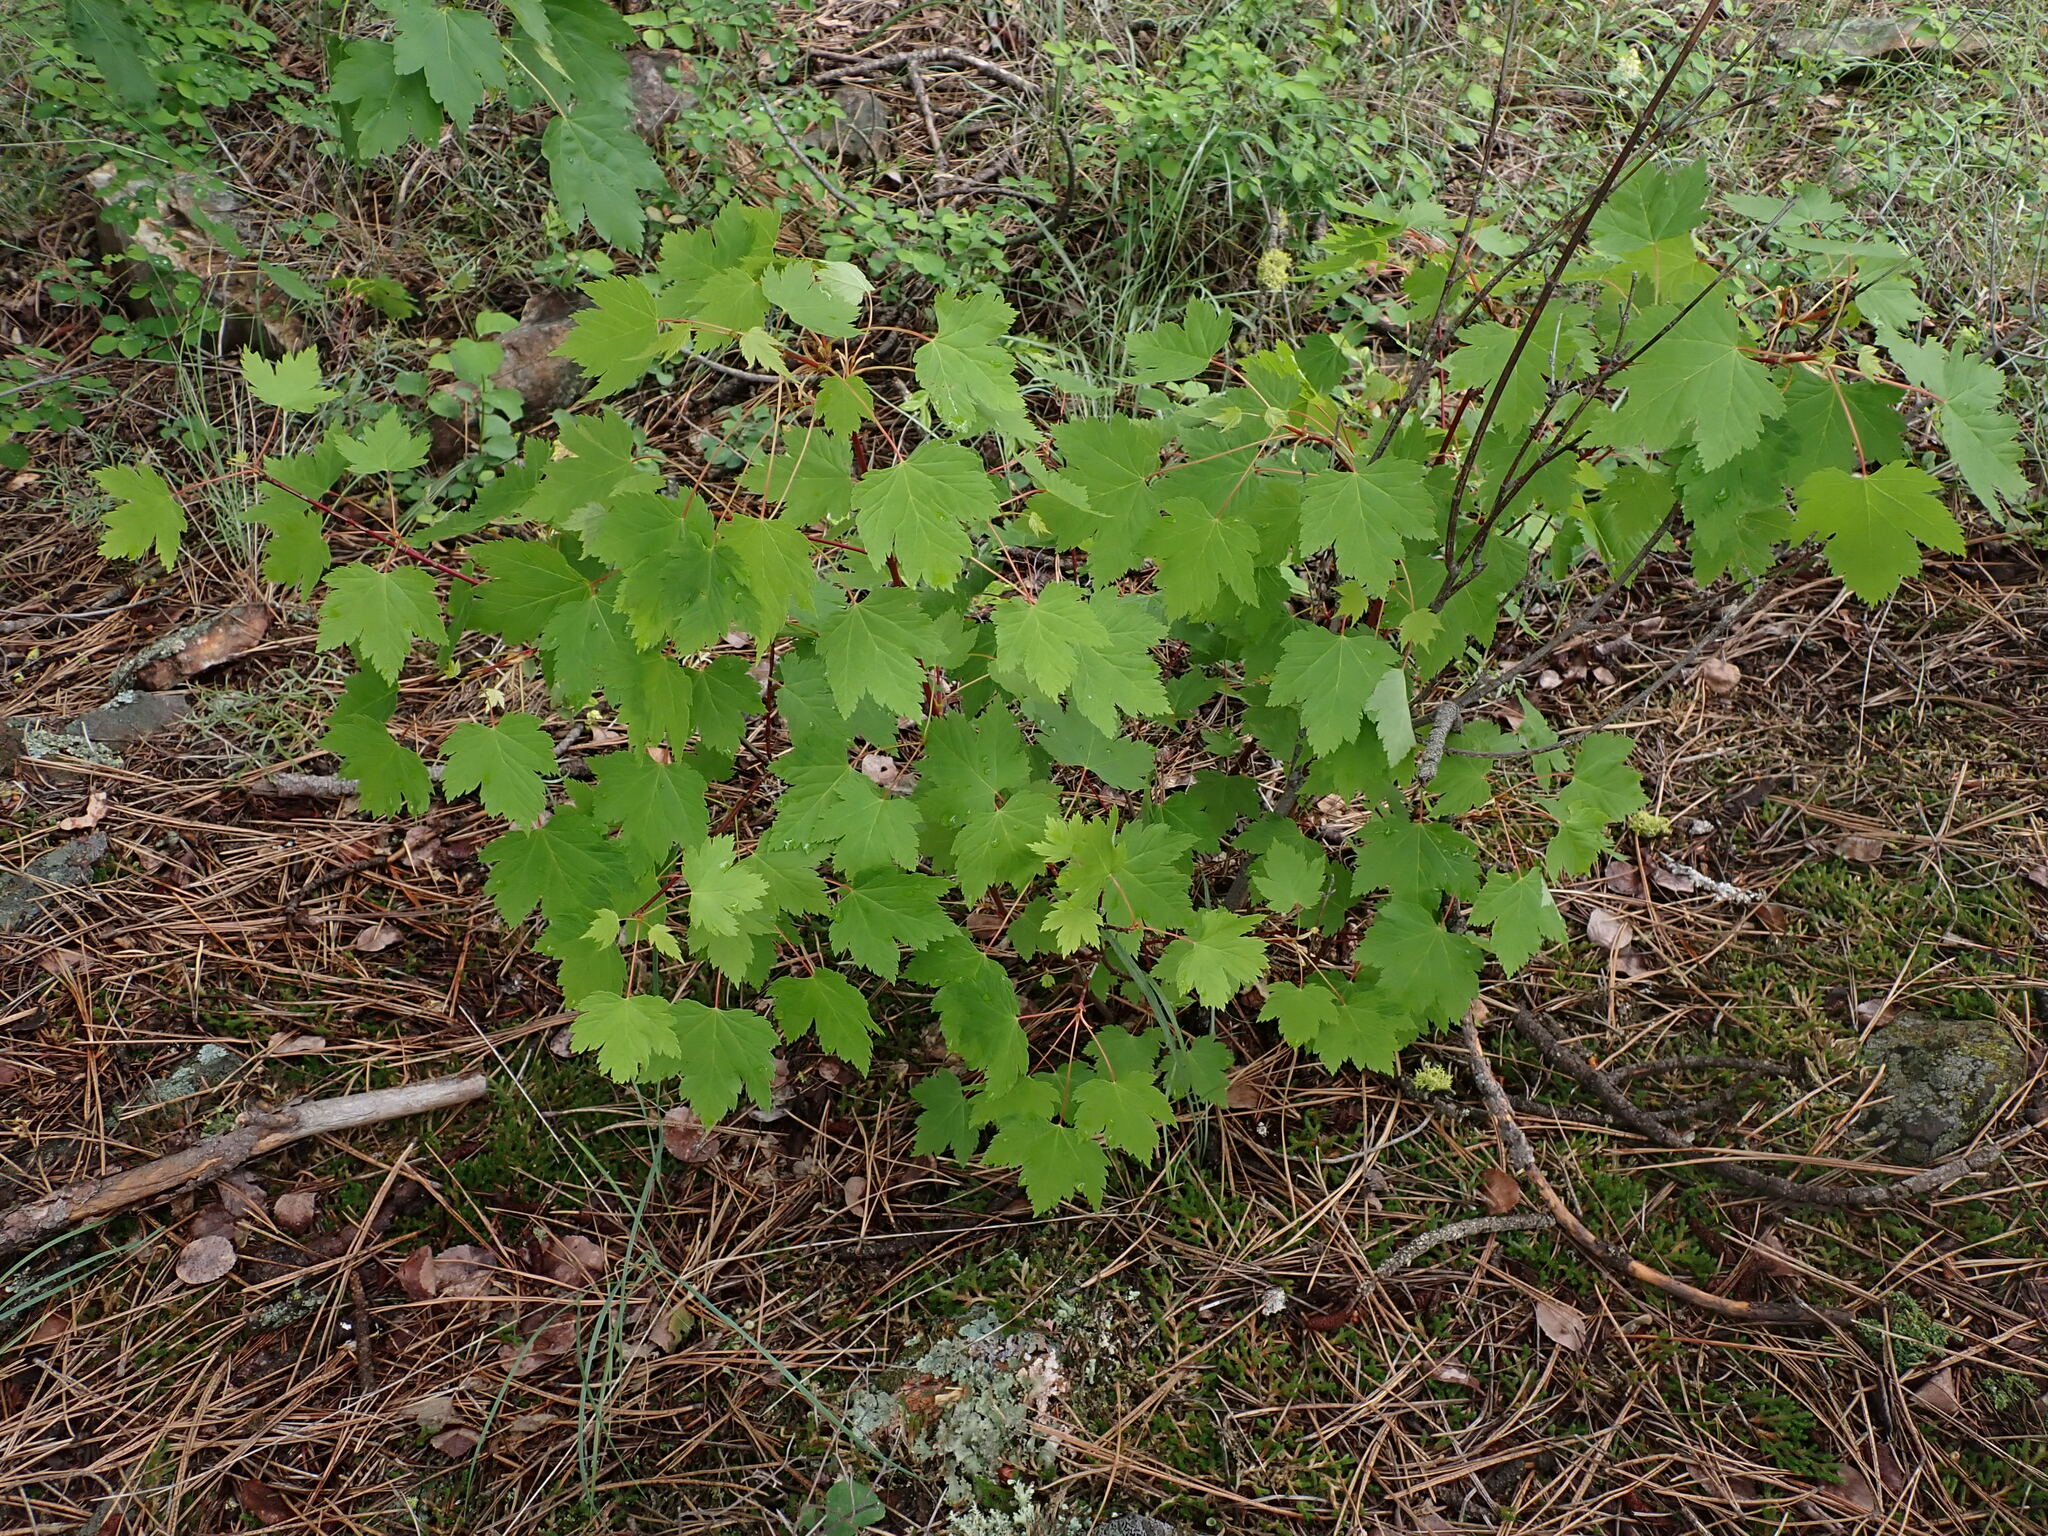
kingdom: Plantae
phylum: Tracheophyta
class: Magnoliopsida
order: Sapindales
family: Sapindaceae
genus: Acer
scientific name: Acer glabrum
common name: Rocky mountain maple
